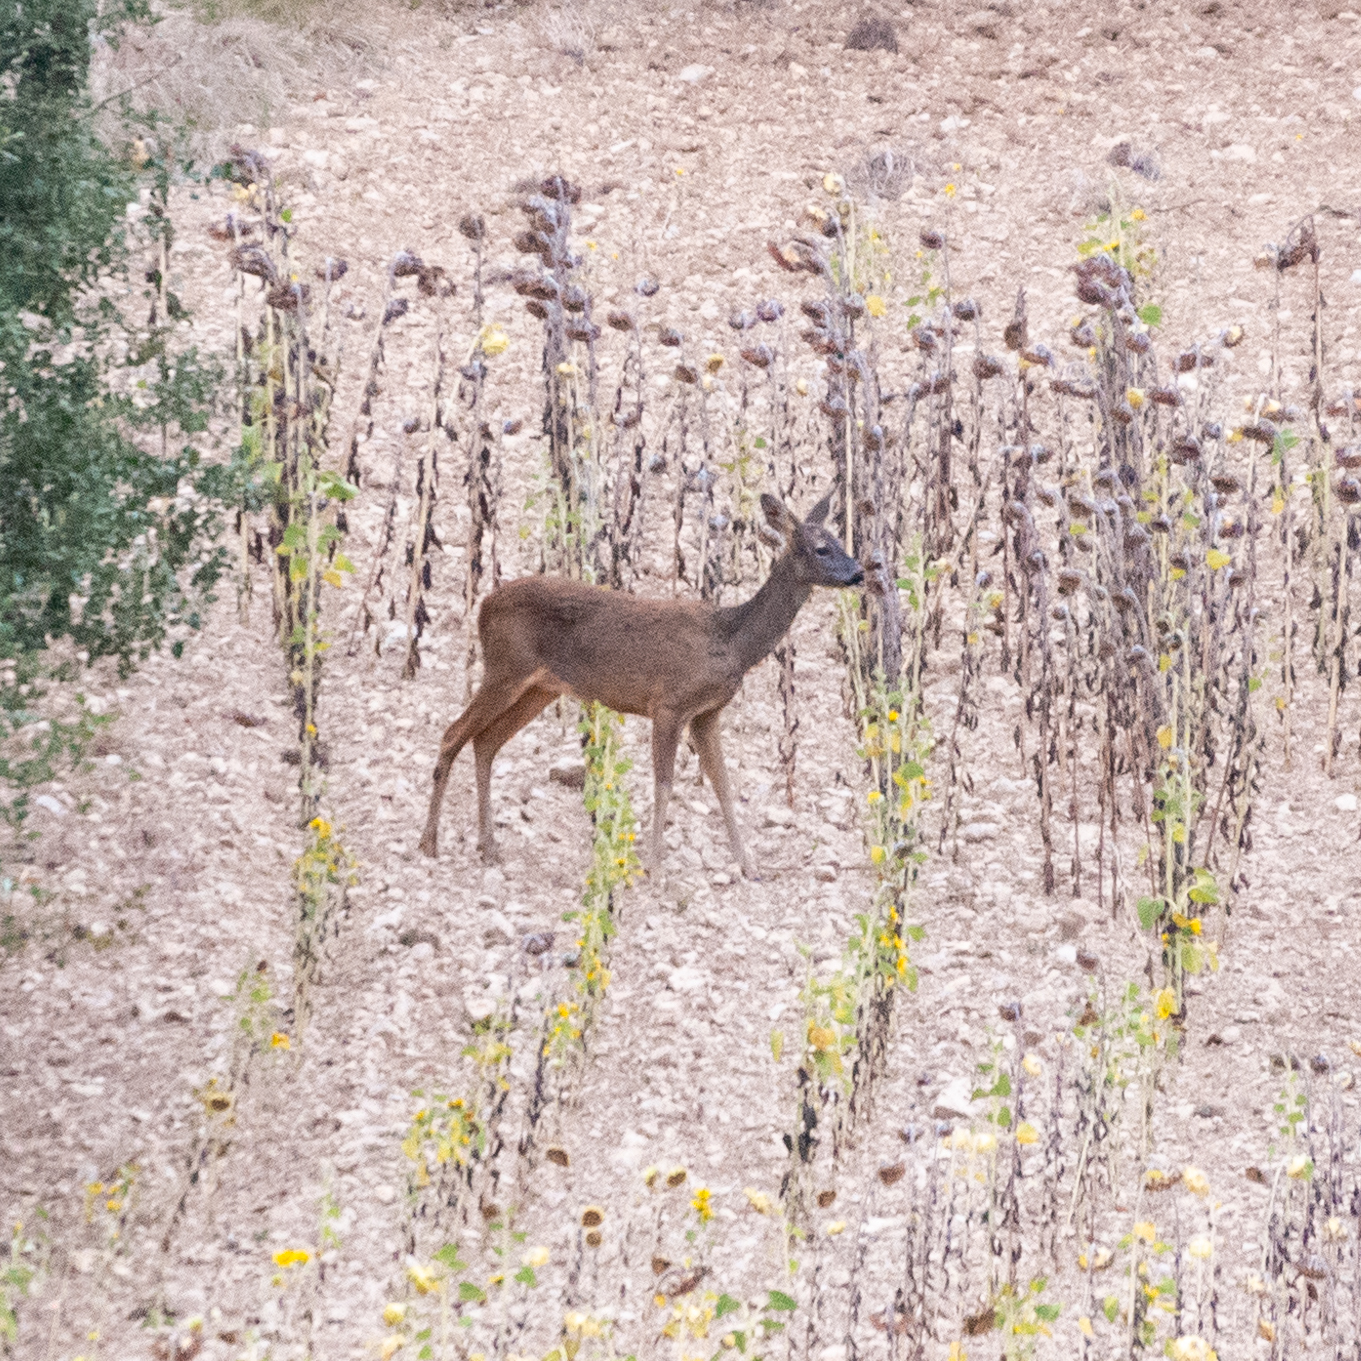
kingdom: Animalia
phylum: Chordata
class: Mammalia
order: Artiodactyla
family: Cervidae
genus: Capreolus
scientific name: Capreolus capreolus
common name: Western roe deer
